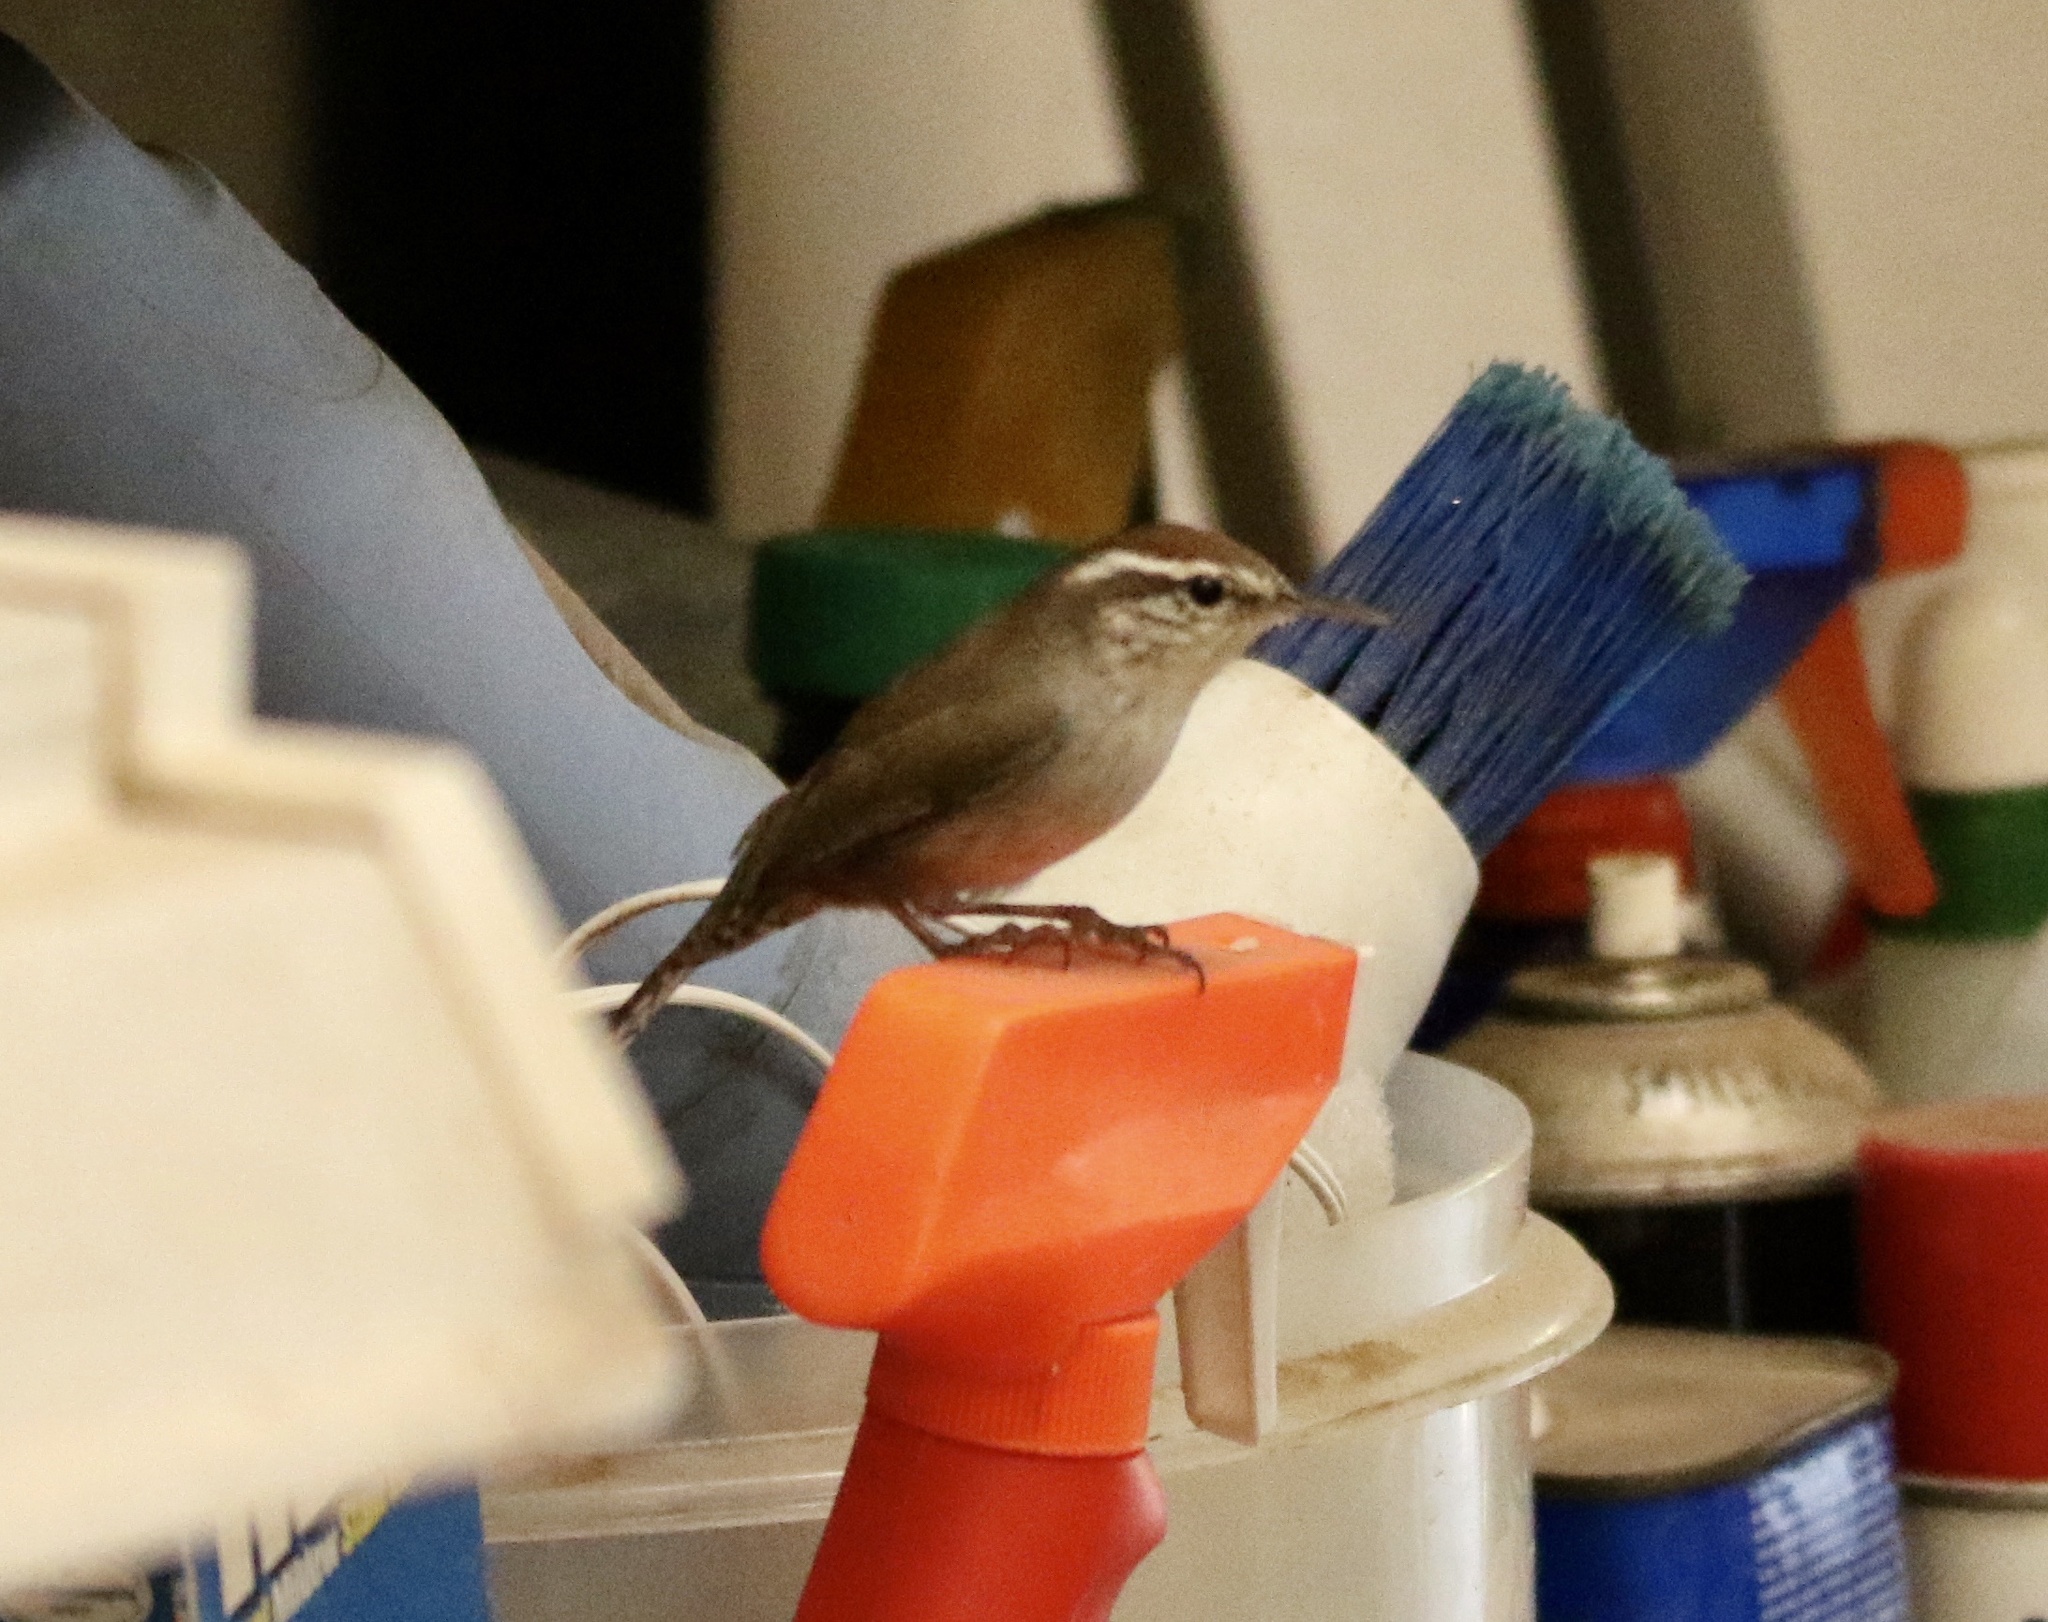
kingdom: Animalia
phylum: Chordata
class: Aves
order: Passeriformes
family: Troglodytidae
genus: Thryomanes
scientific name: Thryomanes bewickii
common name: Bewick's wren
